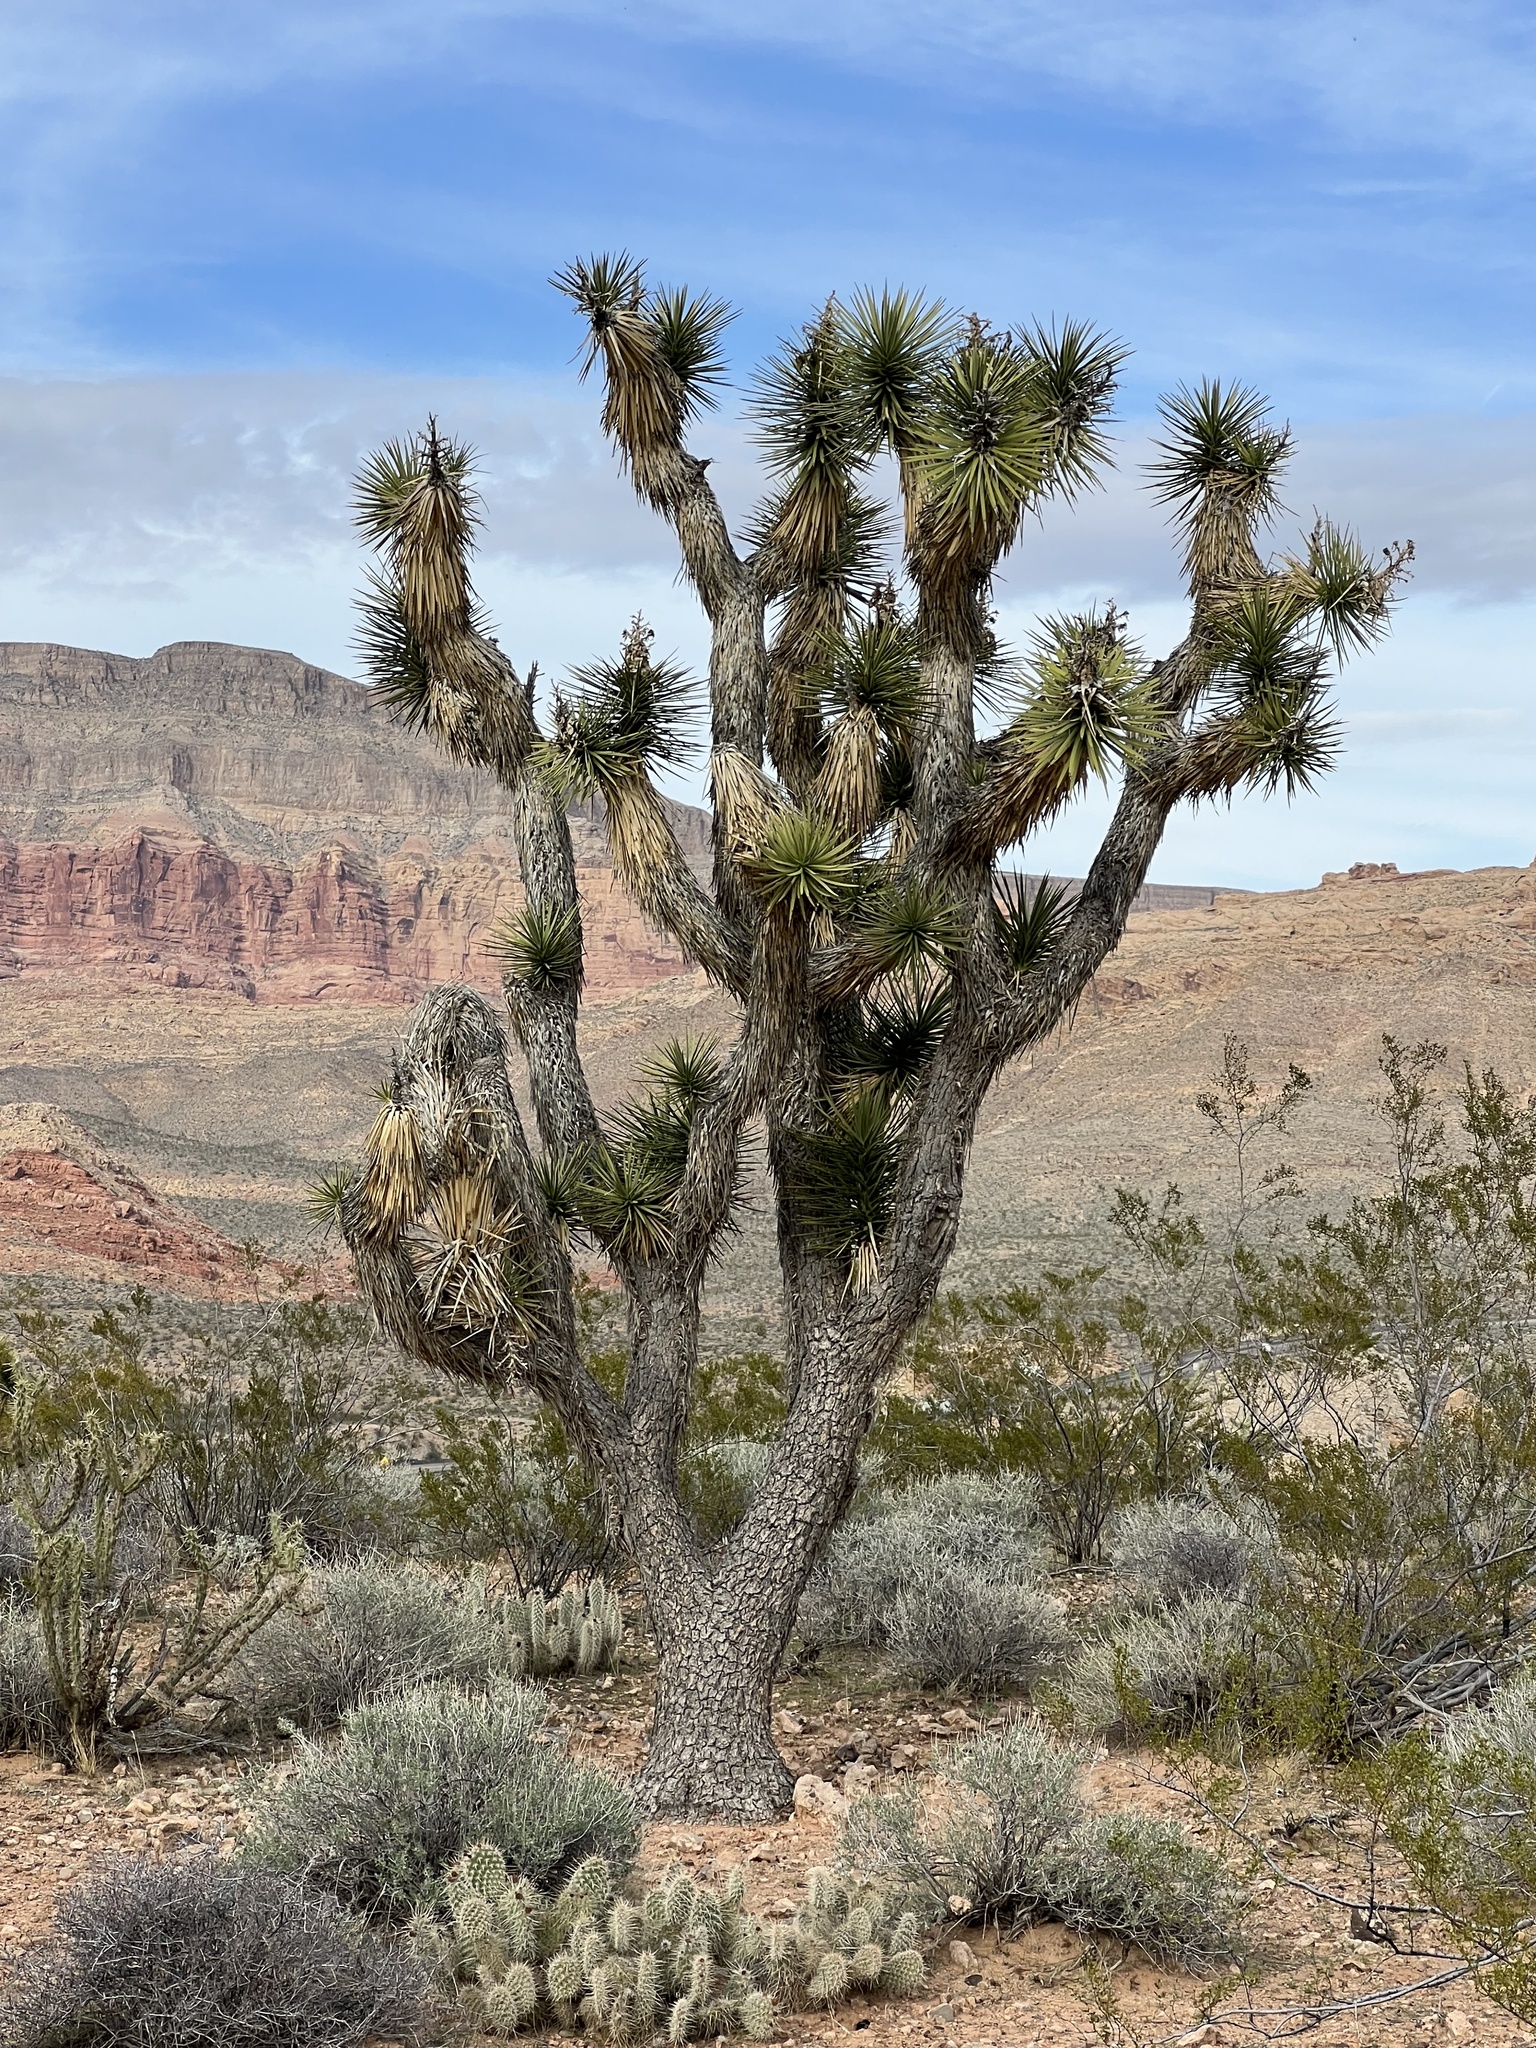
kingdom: Plantae
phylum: Tracheophyta
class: Liliopsida
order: Asparagales
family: Asparagaceae
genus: Yucca
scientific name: Yucca brevifolia
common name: Joshua tree
